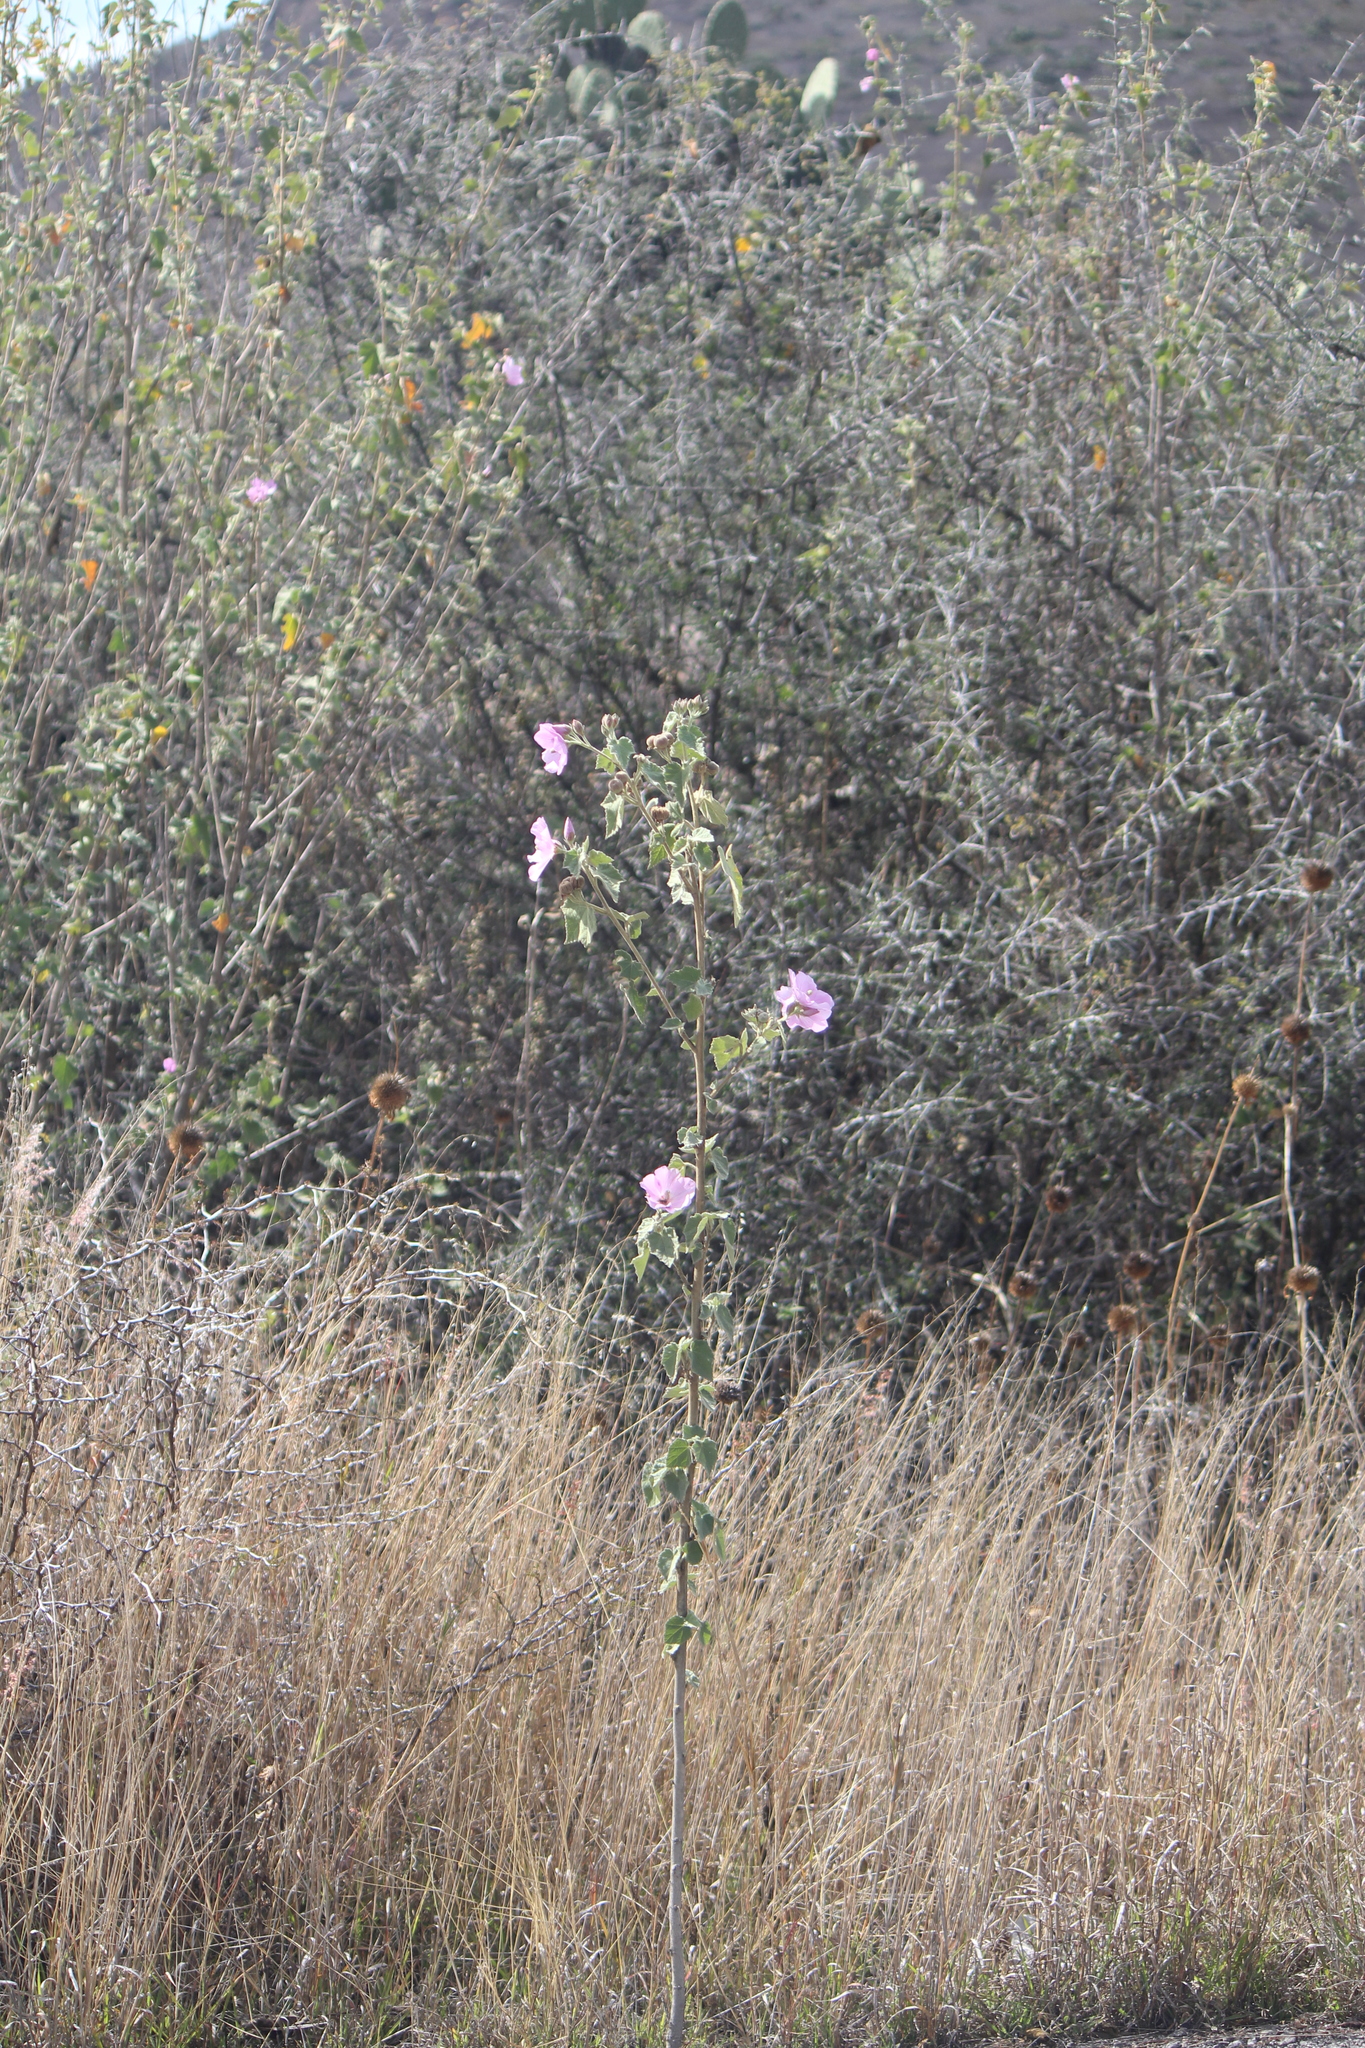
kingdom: Plantae
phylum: Tracheophyta
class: Magnoliopsida
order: Malvales
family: Malvaceae
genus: Anoda
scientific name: Anoda cristata
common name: Spurred anoda
